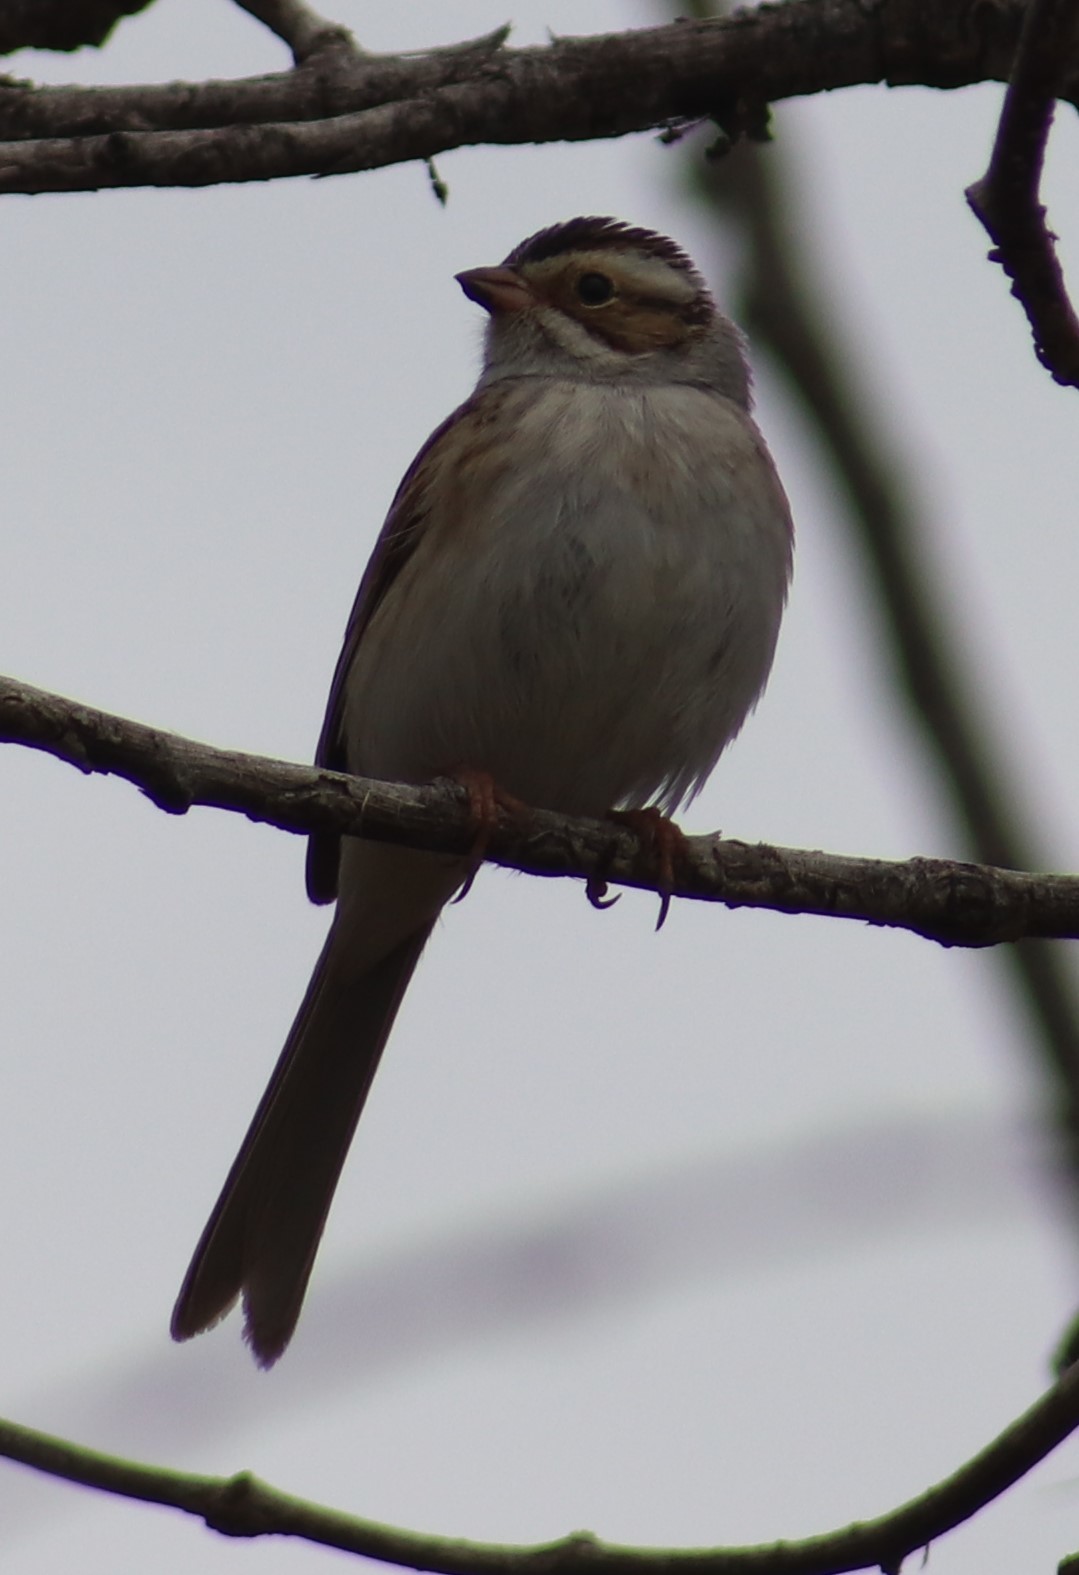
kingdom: Animalia
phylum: Chordata
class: Aves
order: Passeriformes
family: Passerellidae
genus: Spizella
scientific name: Spizella pallida
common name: Clay-colored sparrow
